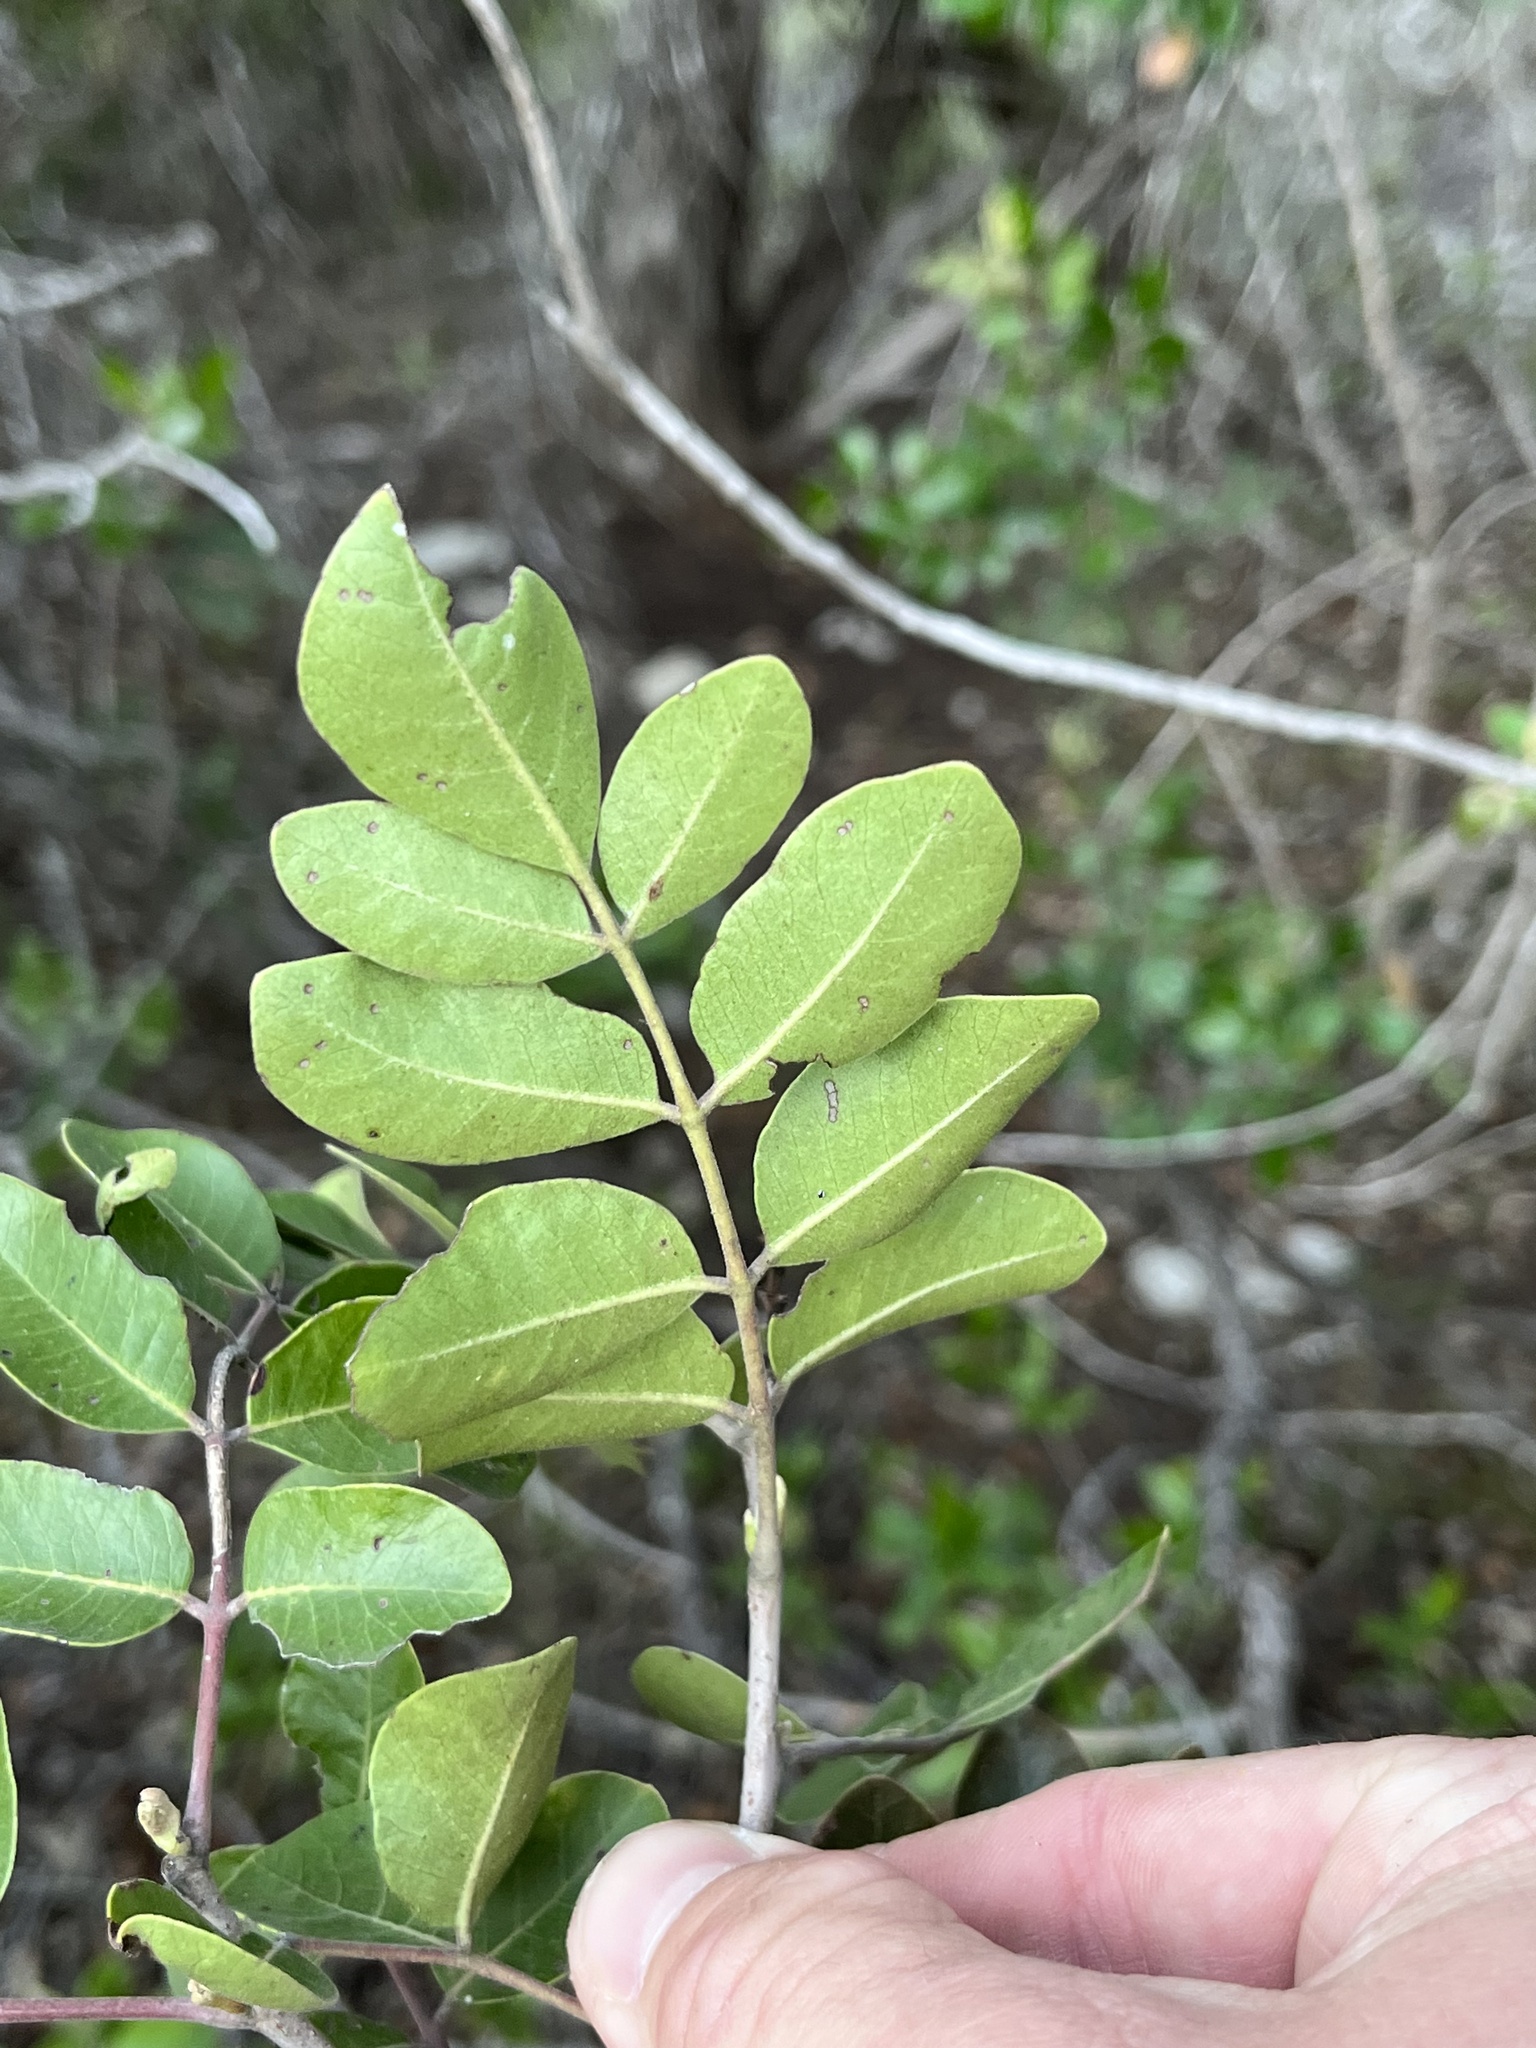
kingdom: Plantae
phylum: Tracheophyta
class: Magnoliopsida
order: Sapindales
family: Anacardiaceae
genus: Rhus
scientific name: Rhus virens
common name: Evergreen sumac
